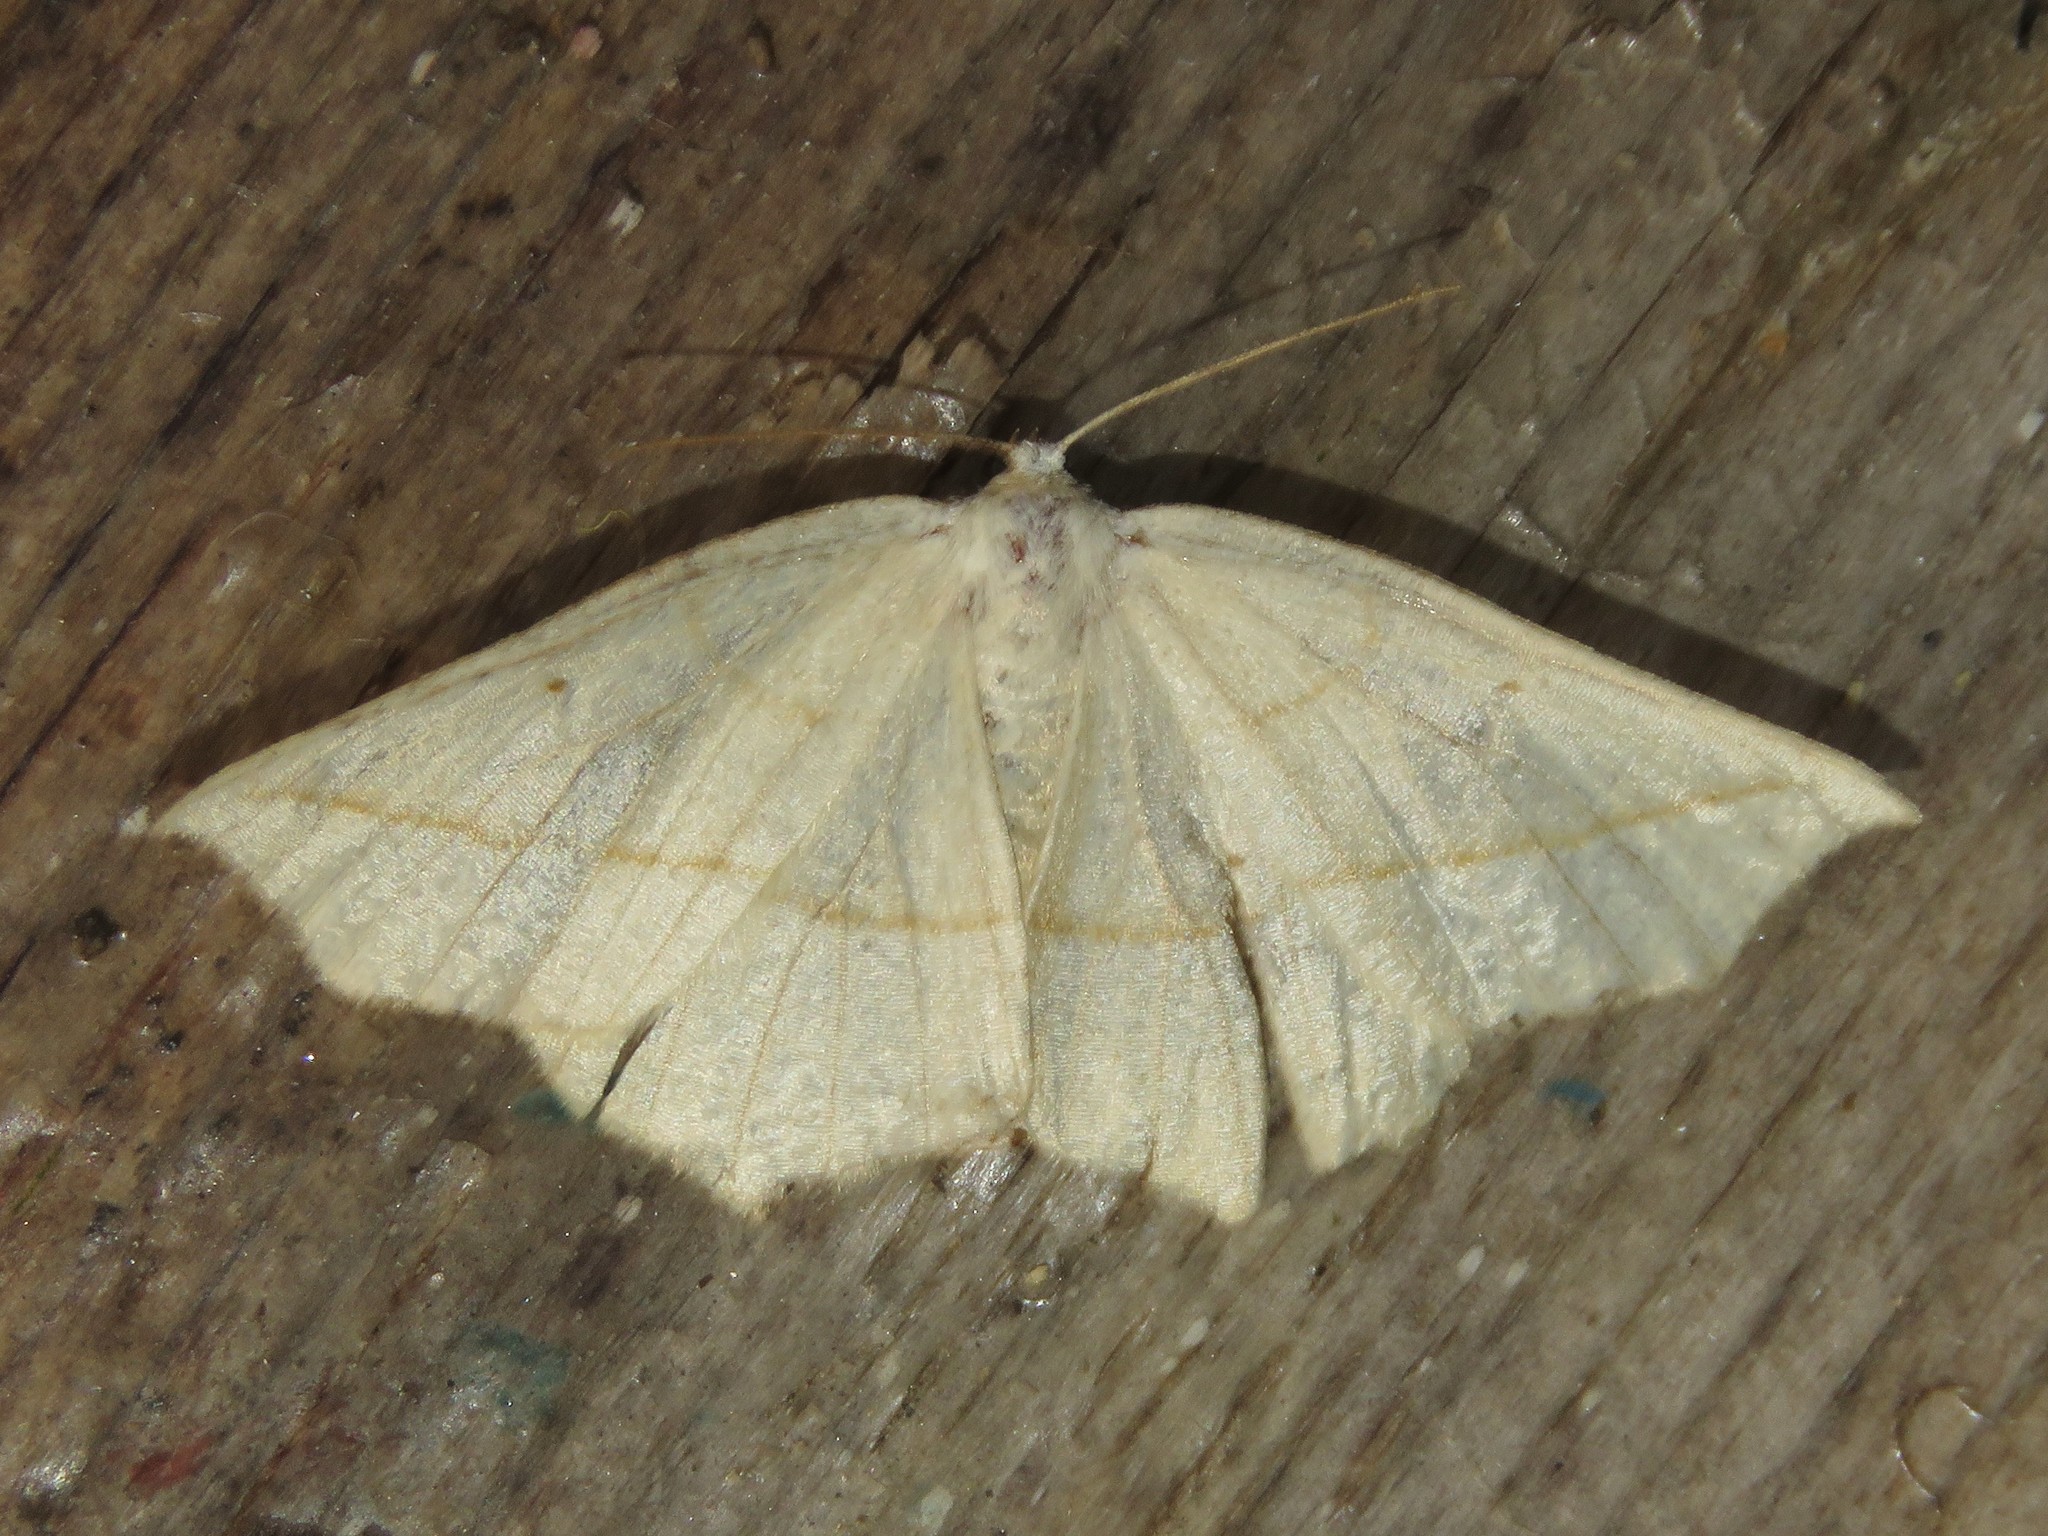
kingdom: Animalia
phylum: Arthropoda
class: Insecta
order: Lepidoptera
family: Geometridae
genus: Eusarca
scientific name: Eusarca confusaria
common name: Confused eusarca
